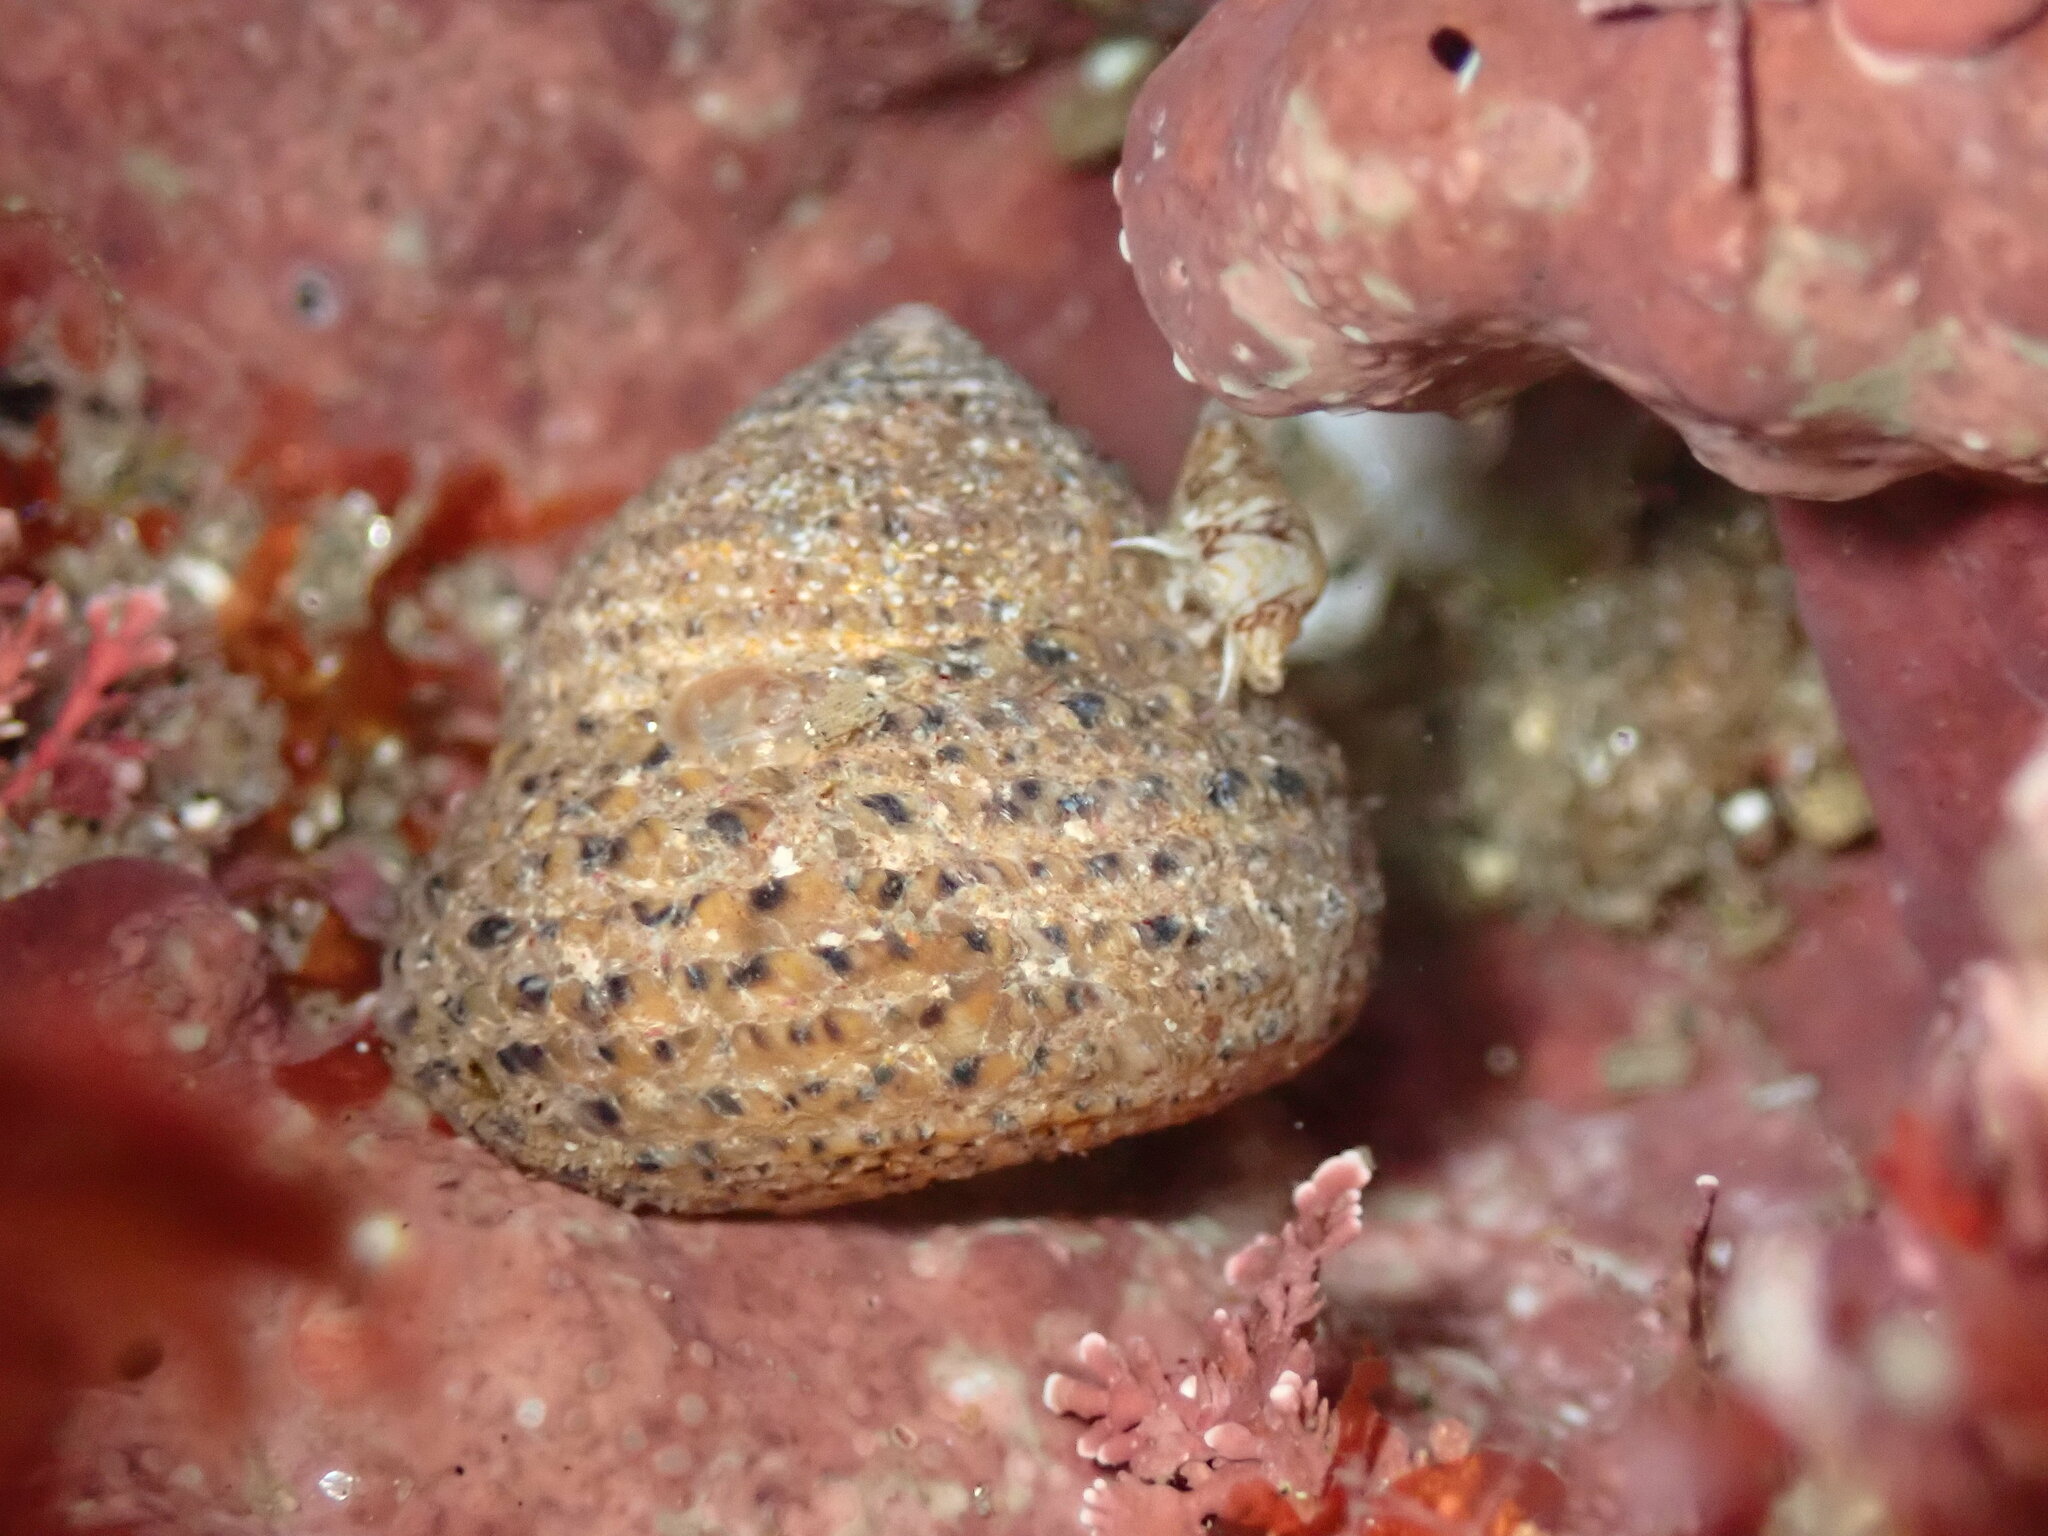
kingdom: Animalia
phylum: Mollusca
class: Gastropoda
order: Trochida
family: Tegulidae
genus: Tegula
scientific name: Tegula eiseni
